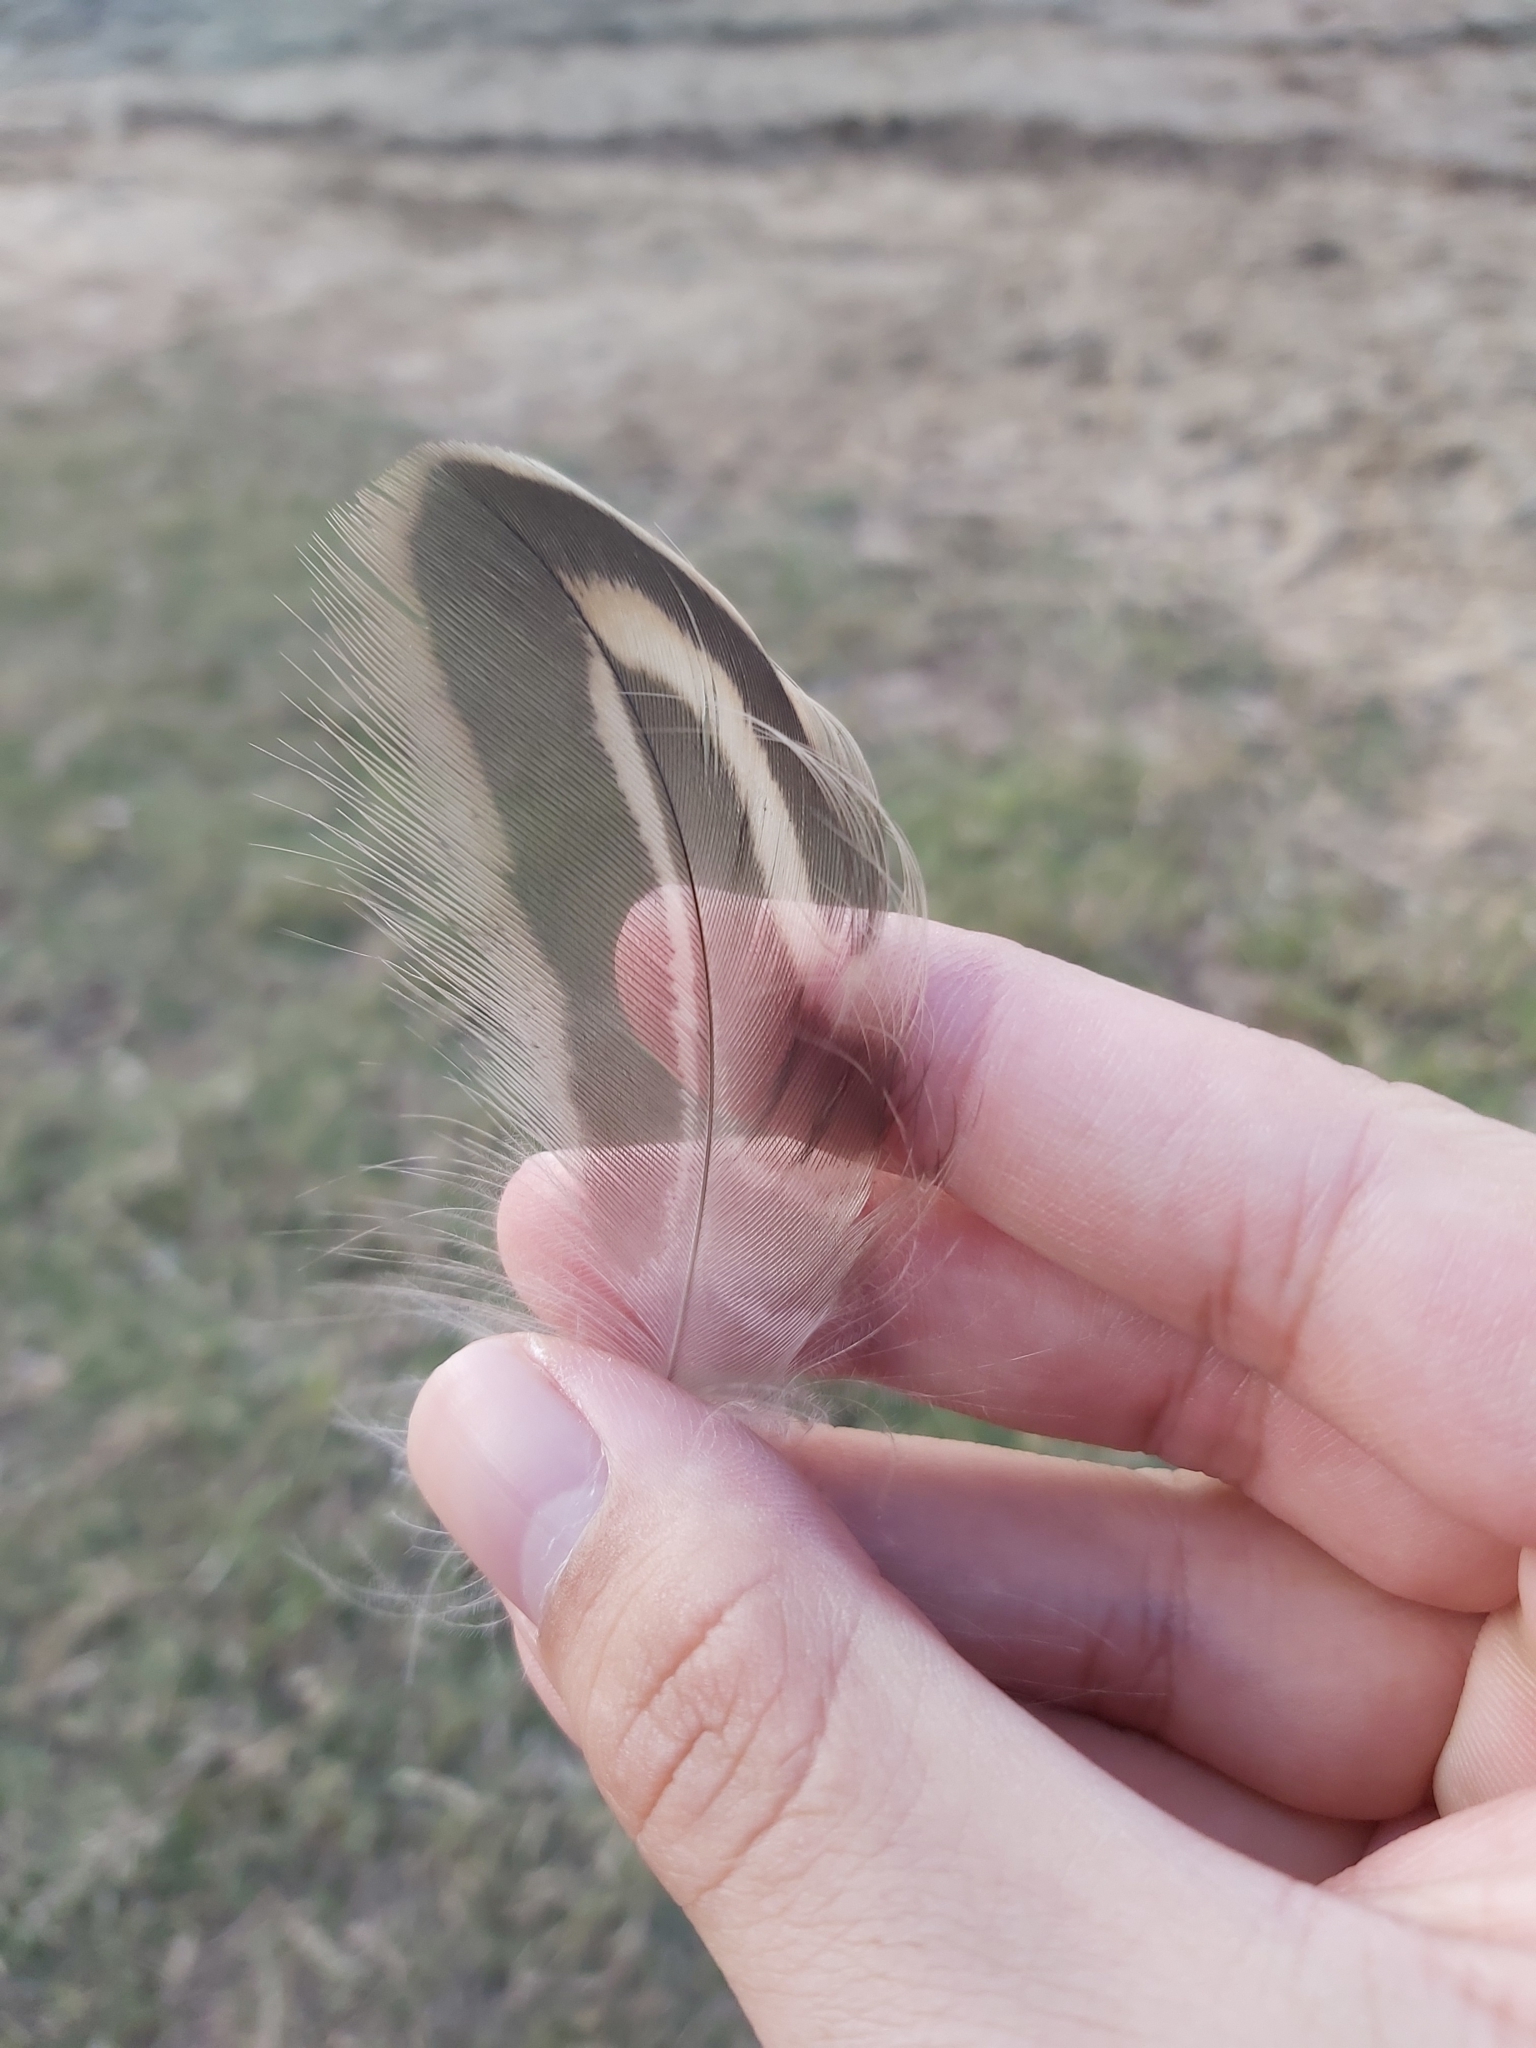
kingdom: Animalia
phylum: Chordata
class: Aves
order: Anseriformes
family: Anatidae
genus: Anas
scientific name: Anas platyrhynchos
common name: Mallard
